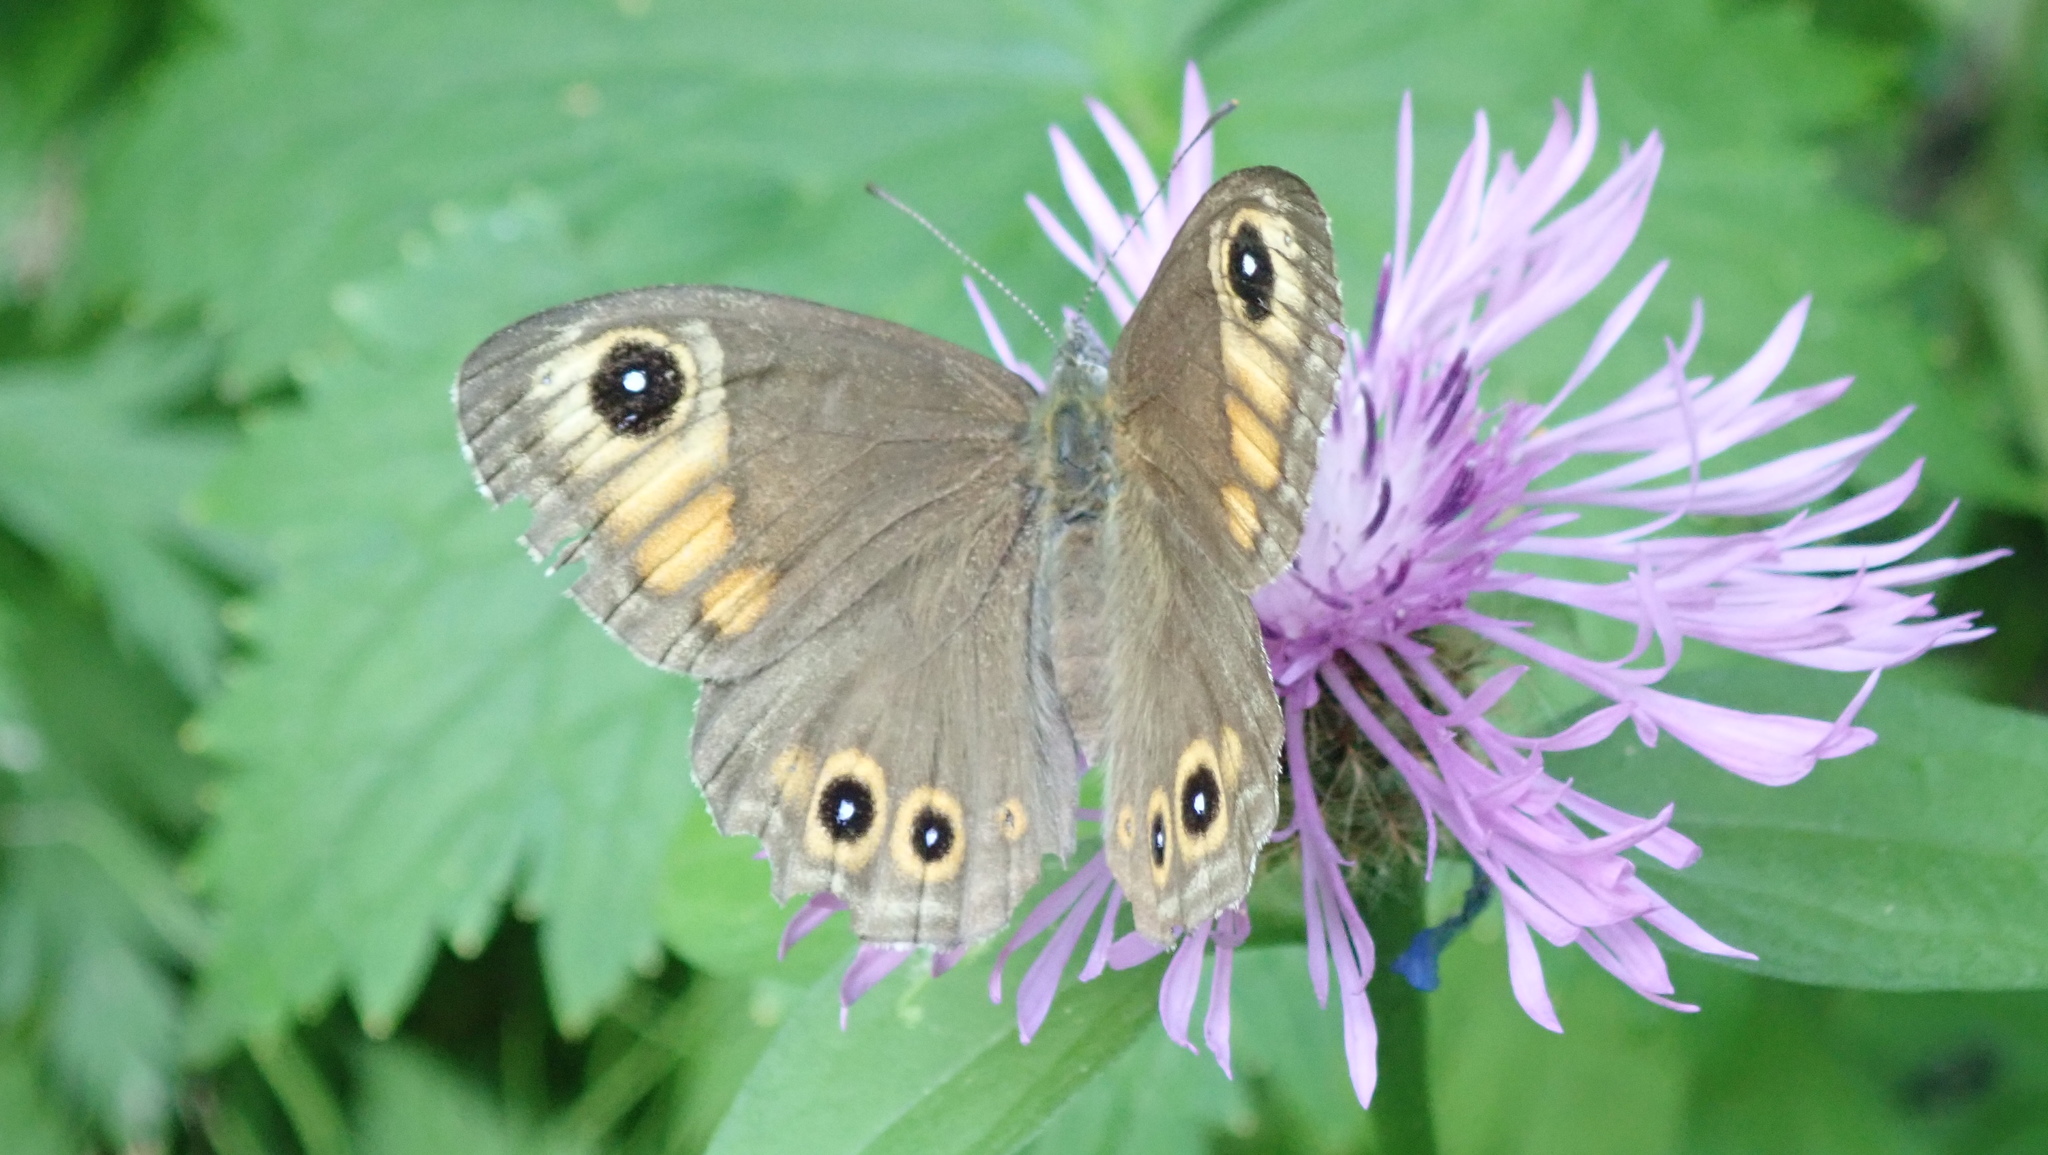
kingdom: Animalia
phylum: Arthropoda
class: Insecta
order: Lepidoptera
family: Nymphalidae
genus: Pararge
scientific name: Pararge Lasiommata maera
